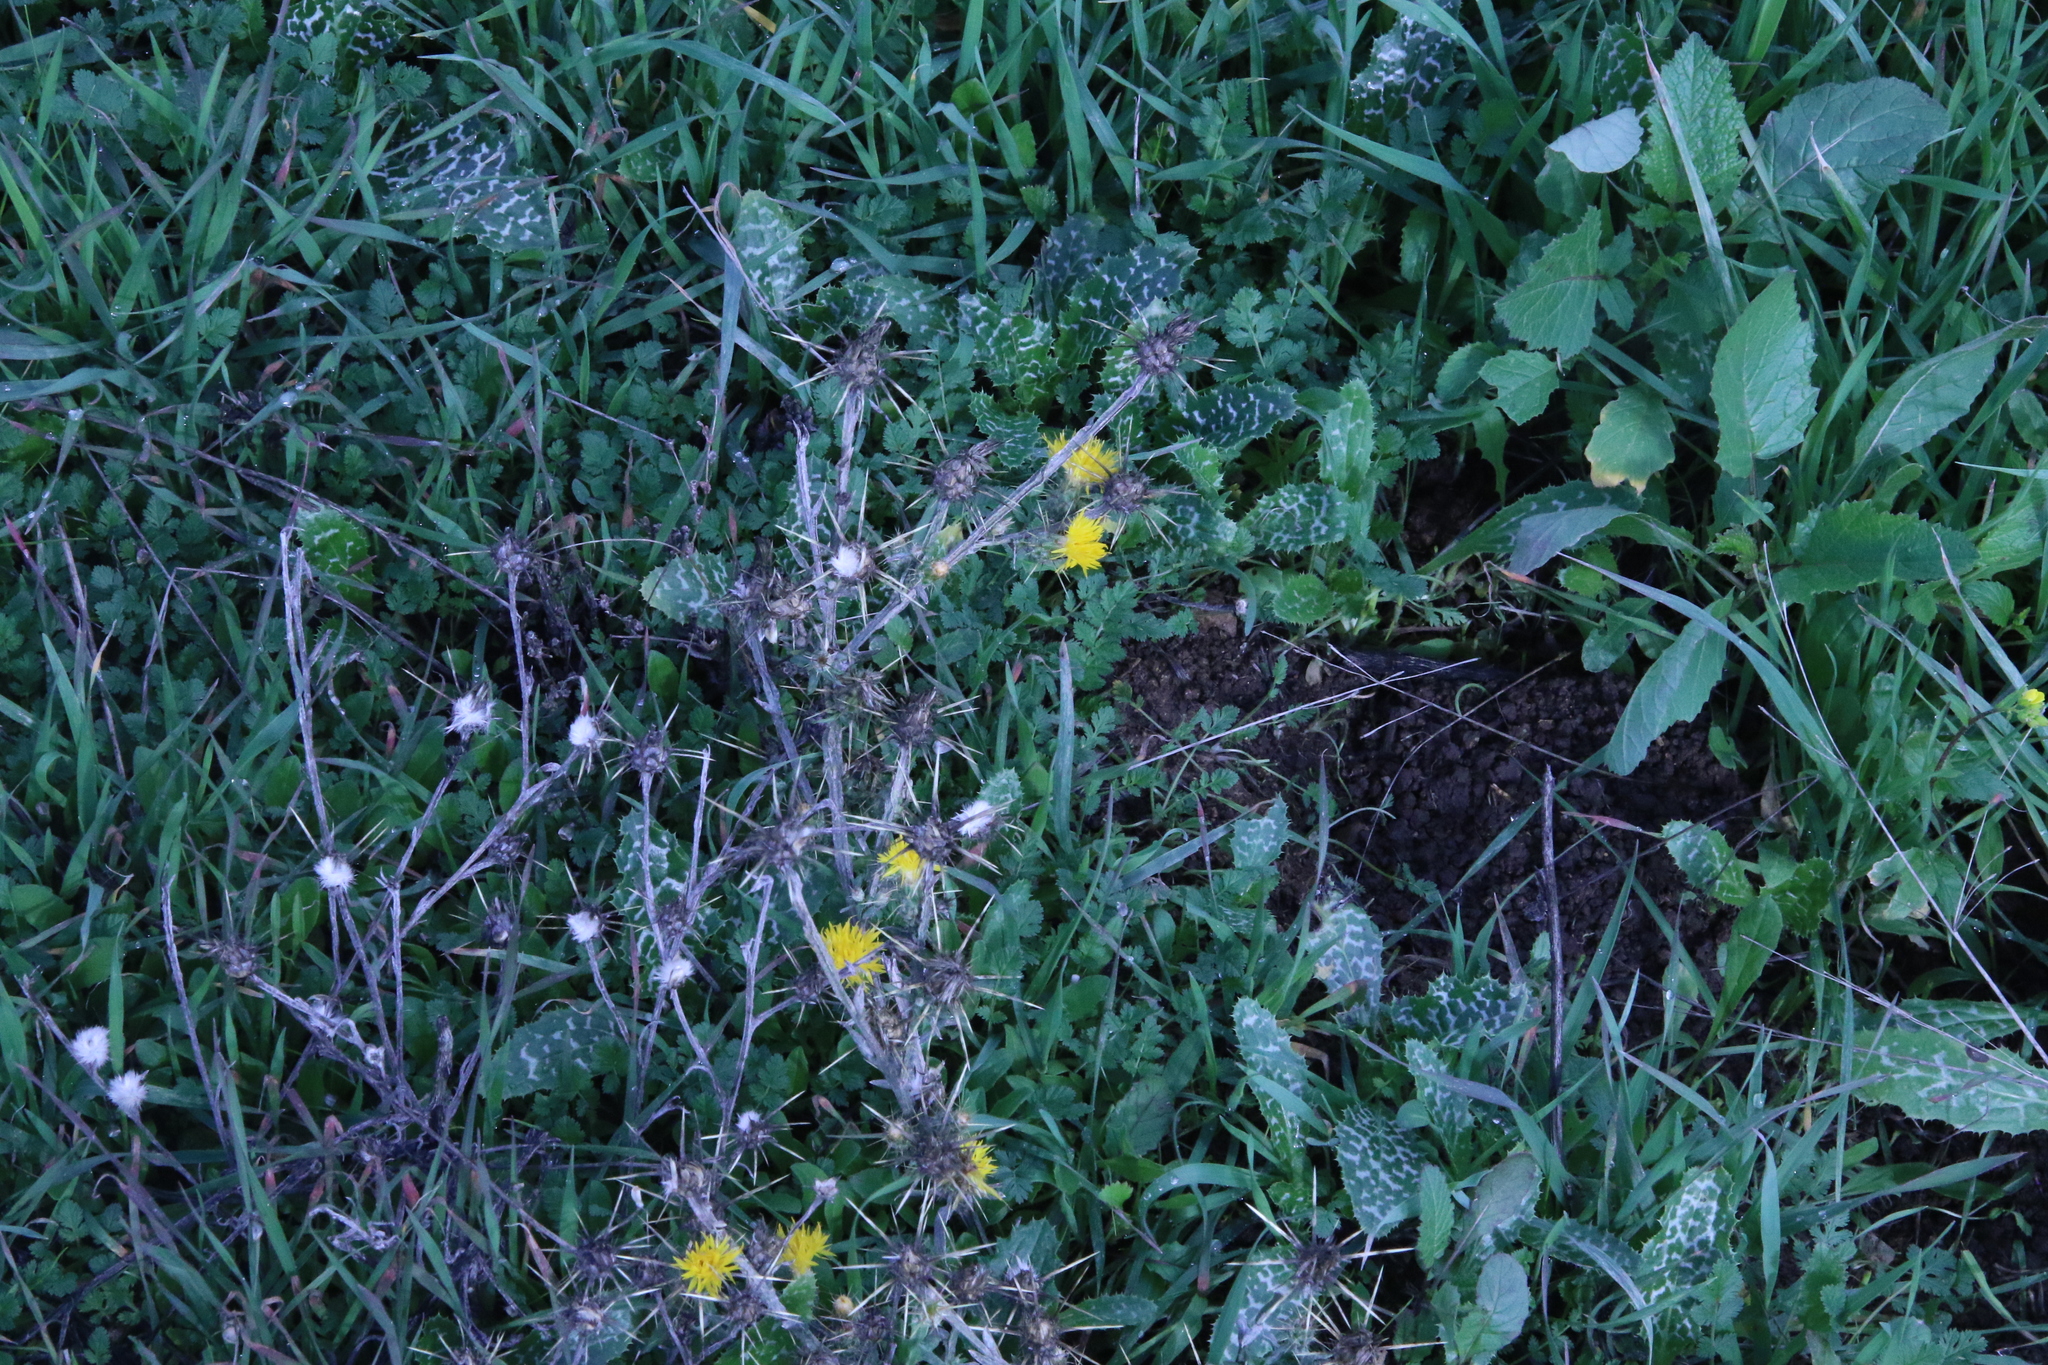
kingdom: Plantae
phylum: Tracheophyta
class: Magnoliopsida
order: Asterales
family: Asteraceae
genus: Centaurea
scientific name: Centaurea solstitialis
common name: Yellow star-thistle
